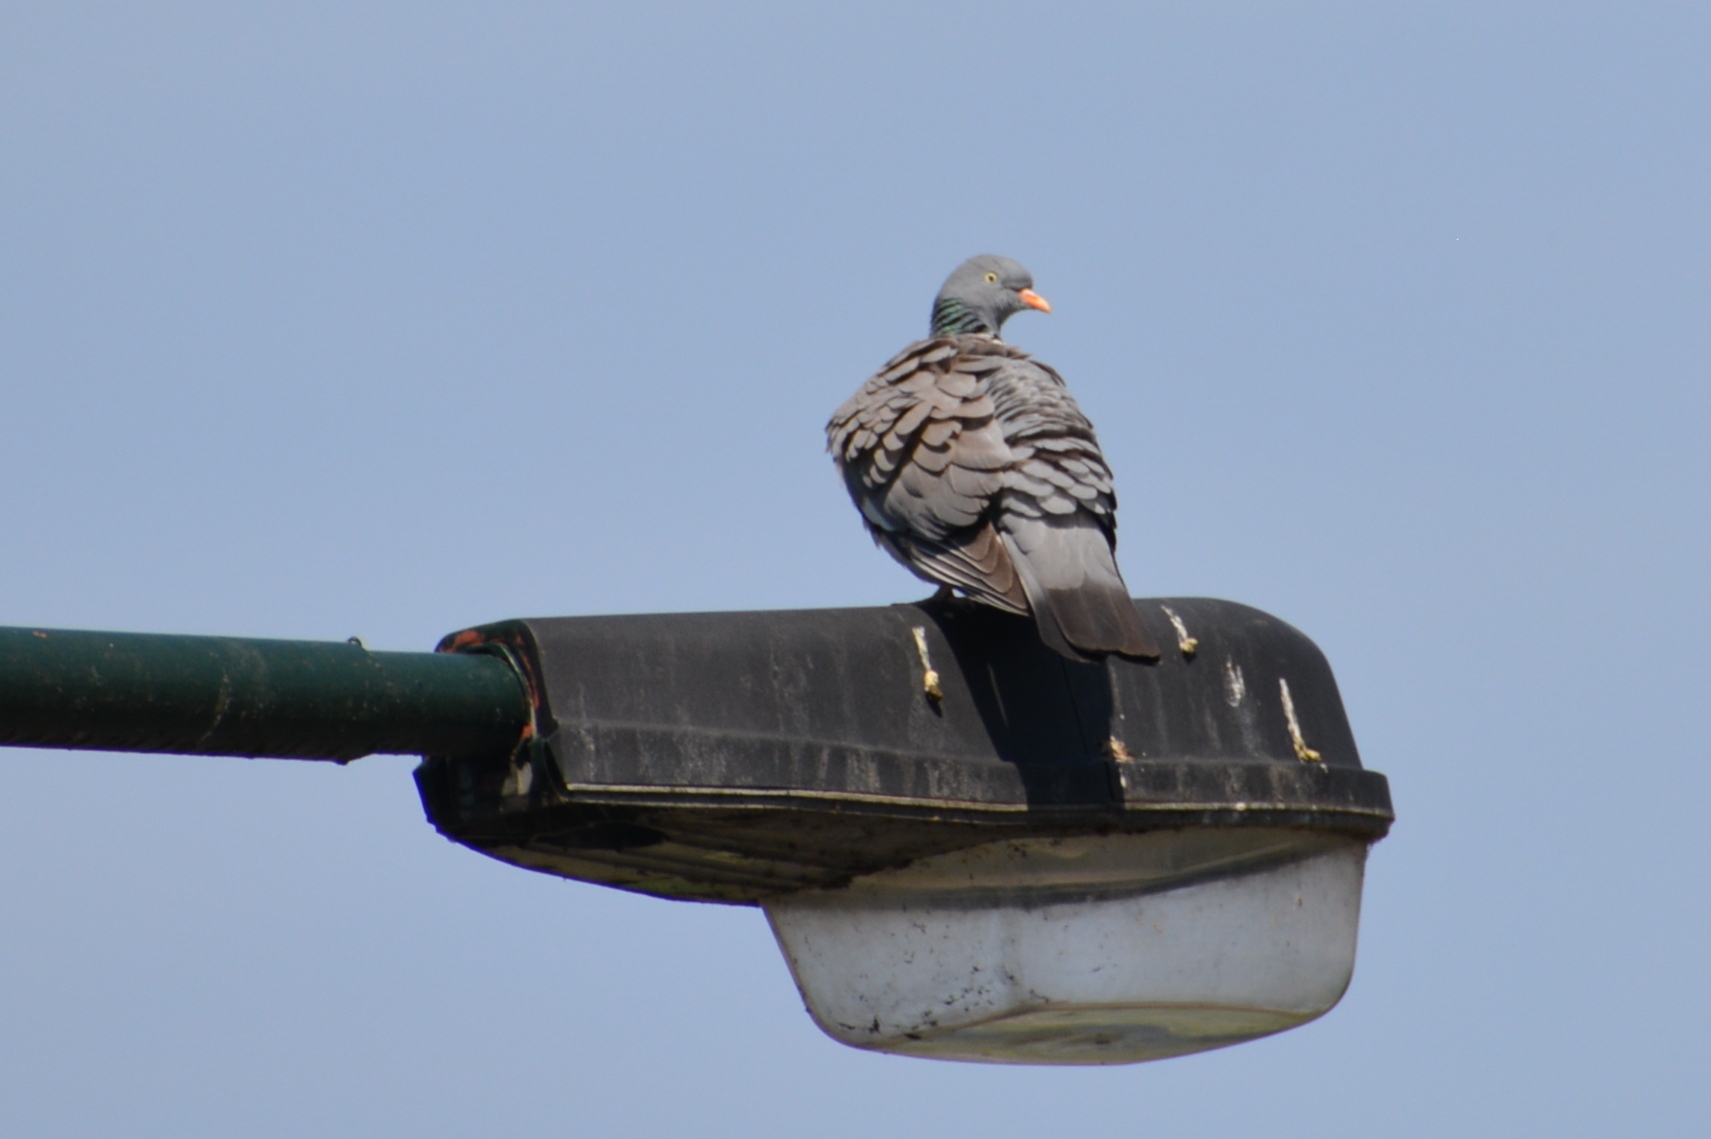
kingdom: Animalia
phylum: Chordata
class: Aves
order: Columbiformes
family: Columbidae
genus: Columba
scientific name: Columba palumbus
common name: Common wood pigeon
